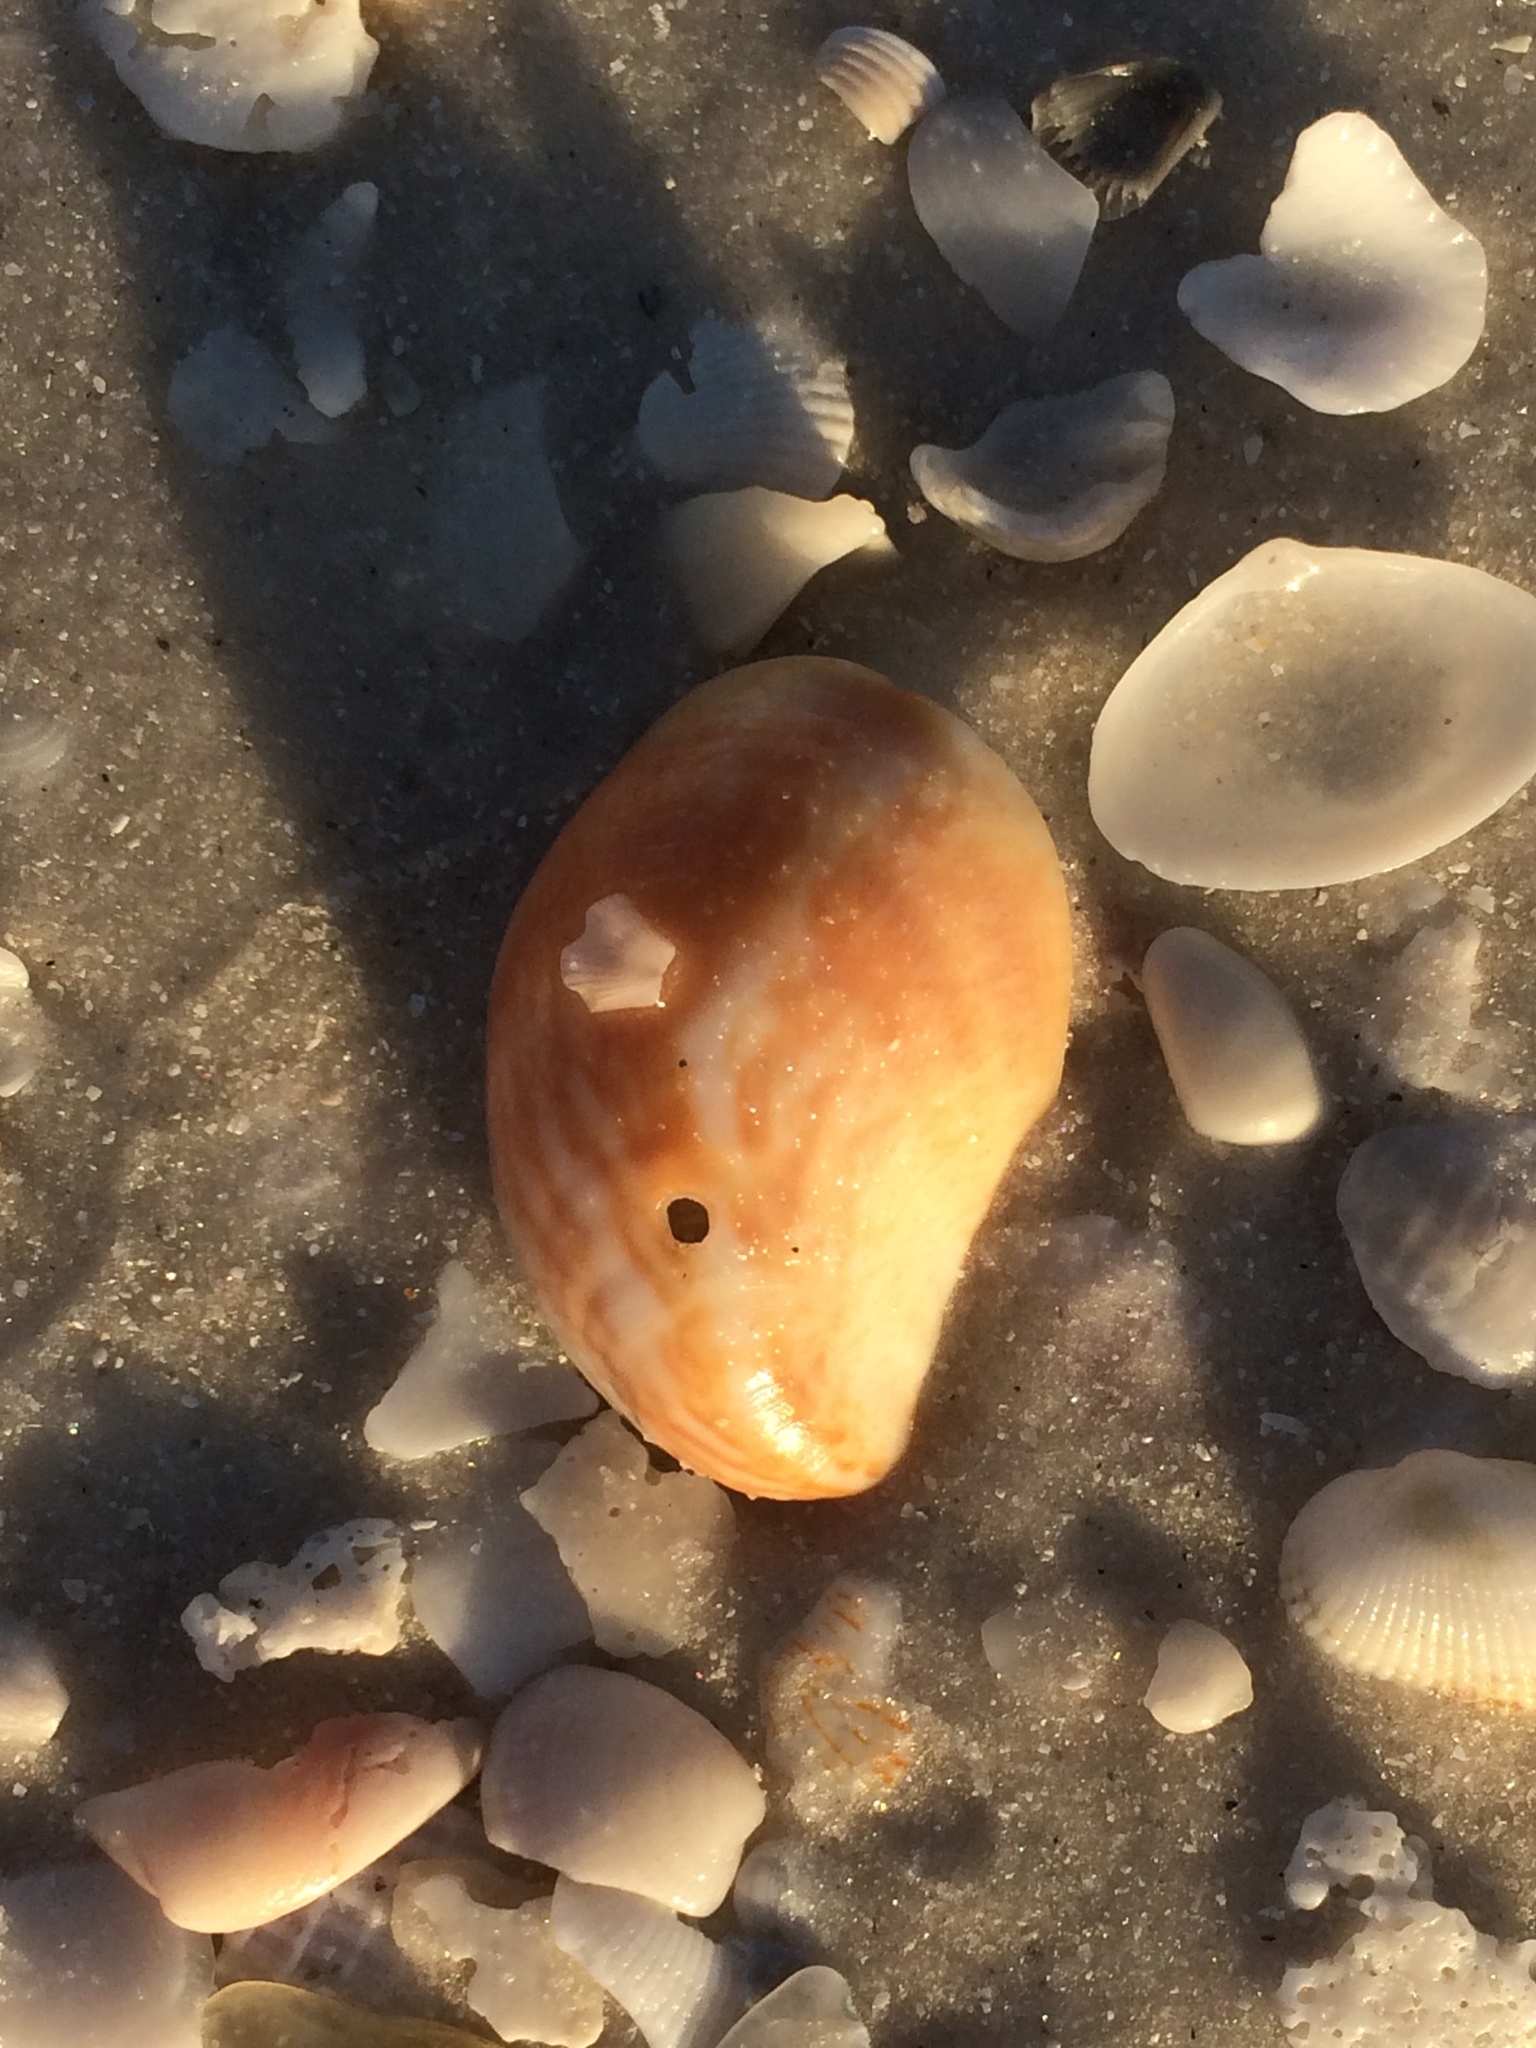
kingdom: Animalia
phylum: Mollusca
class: Gastropoda
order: Littorinimorpha
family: Calyptraeidae
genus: Crepidula
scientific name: Crepidula fornicata
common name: Slipper limpet
